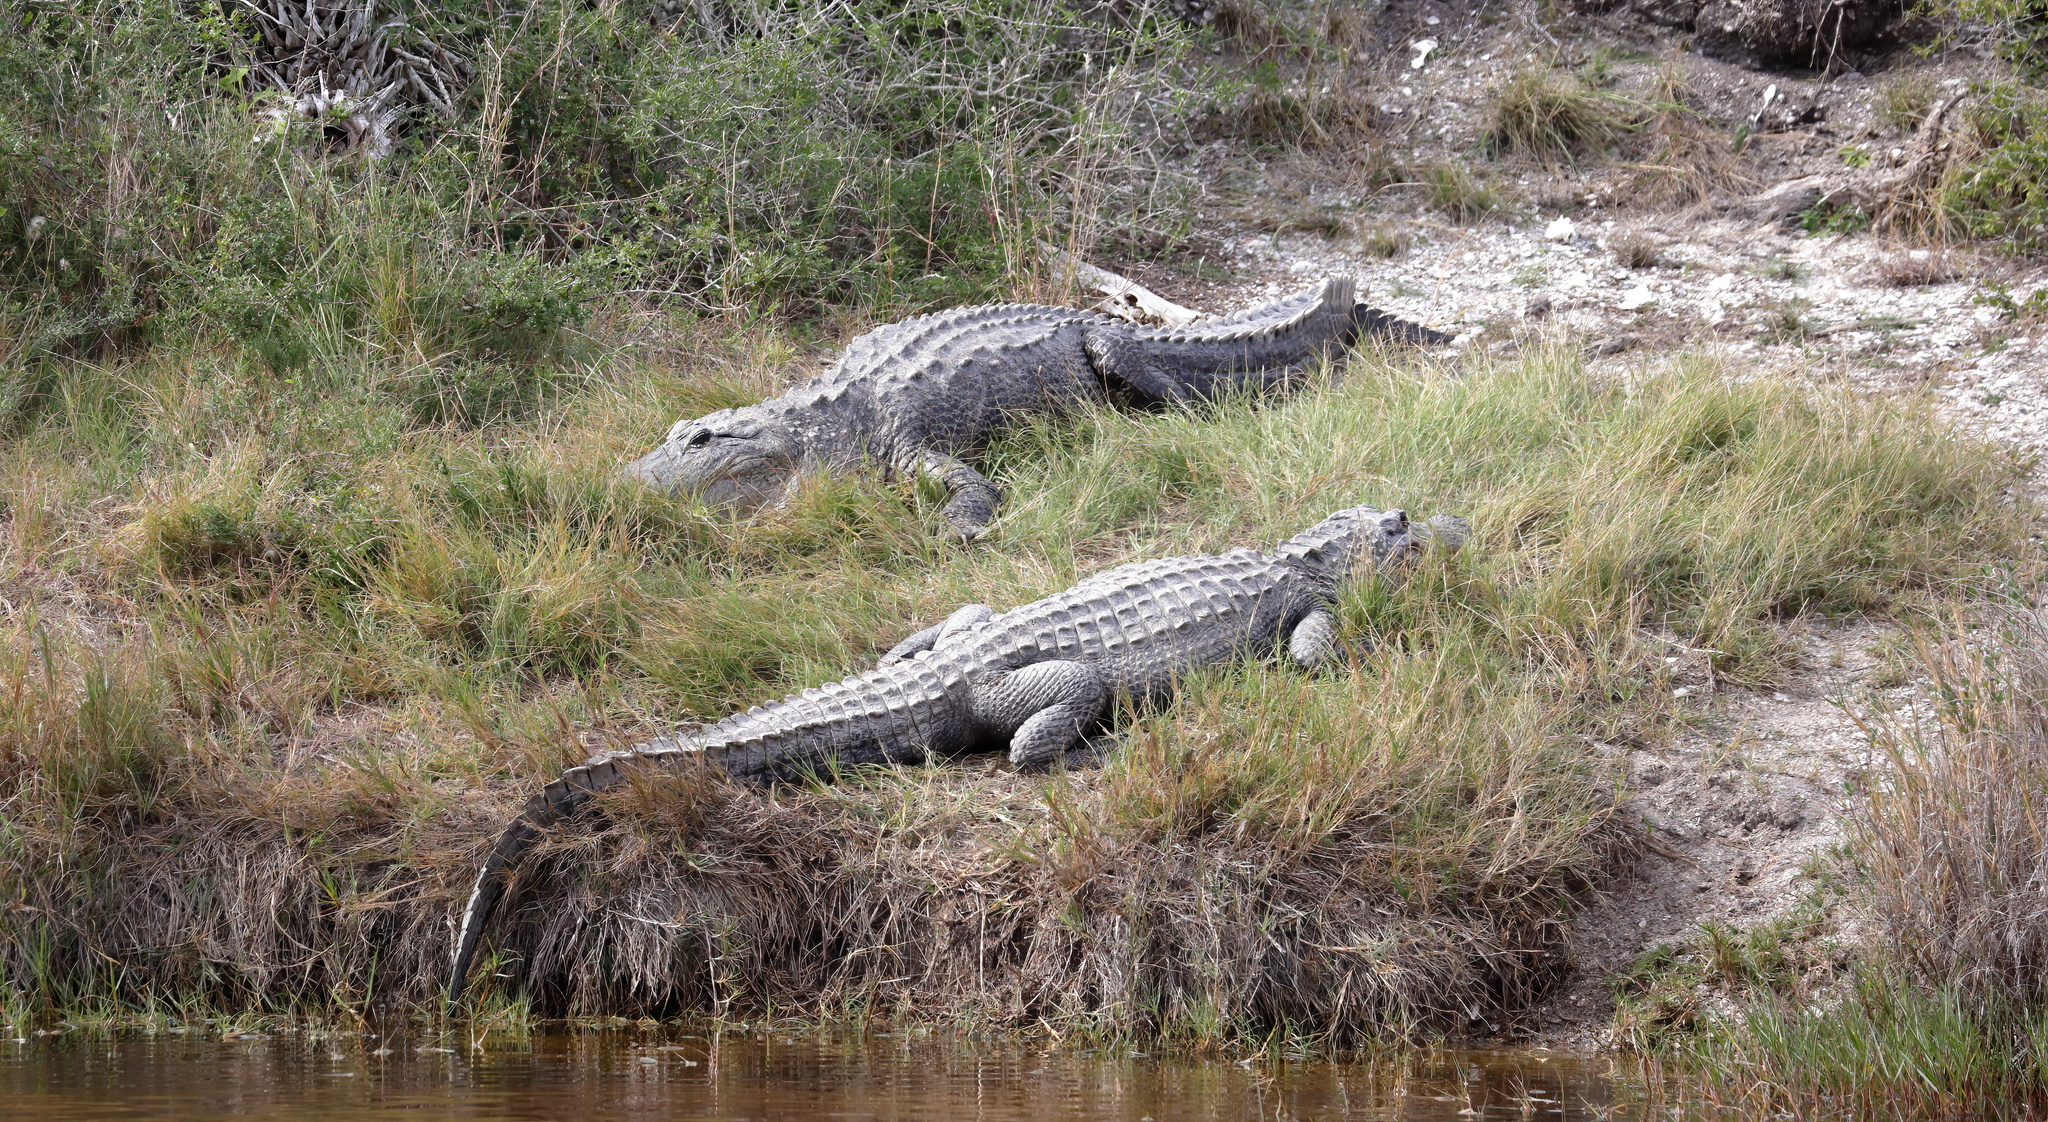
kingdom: Animalia
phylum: Chordata
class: Crocodylia
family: Alligatoridae
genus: Alligator
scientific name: Alligator mississippiensis
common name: American alligator
